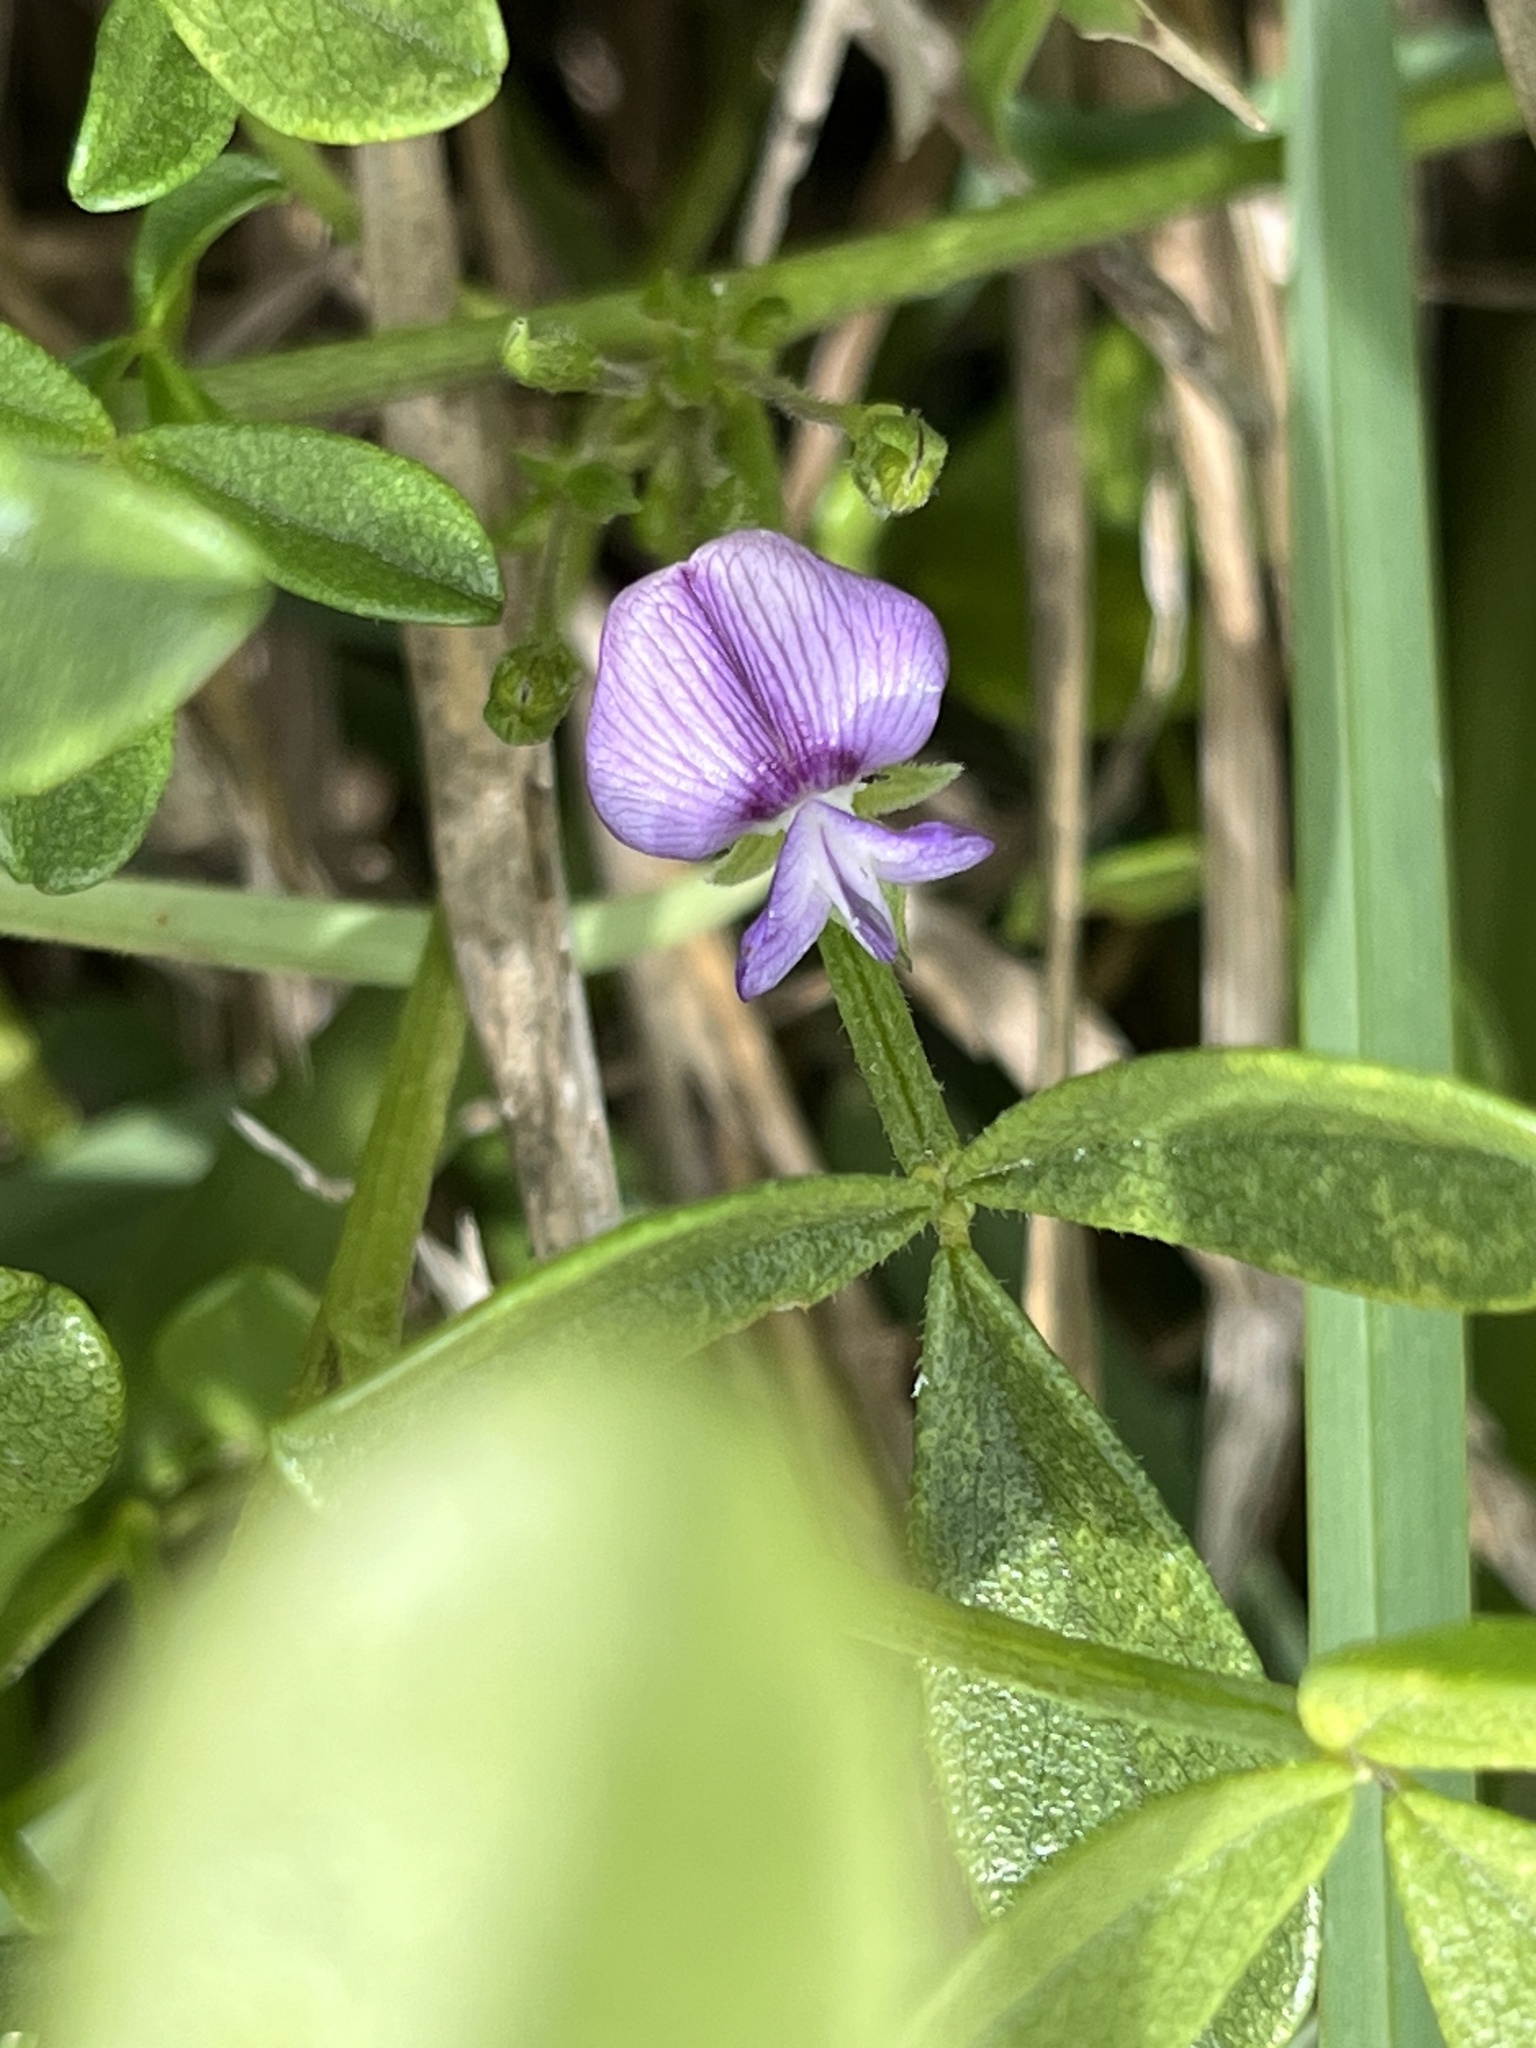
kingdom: Plantae
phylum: Tracheophyta
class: Magnoliopsida
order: Fabales
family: Fabaceae
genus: Psoralea
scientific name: Psoralea repens
